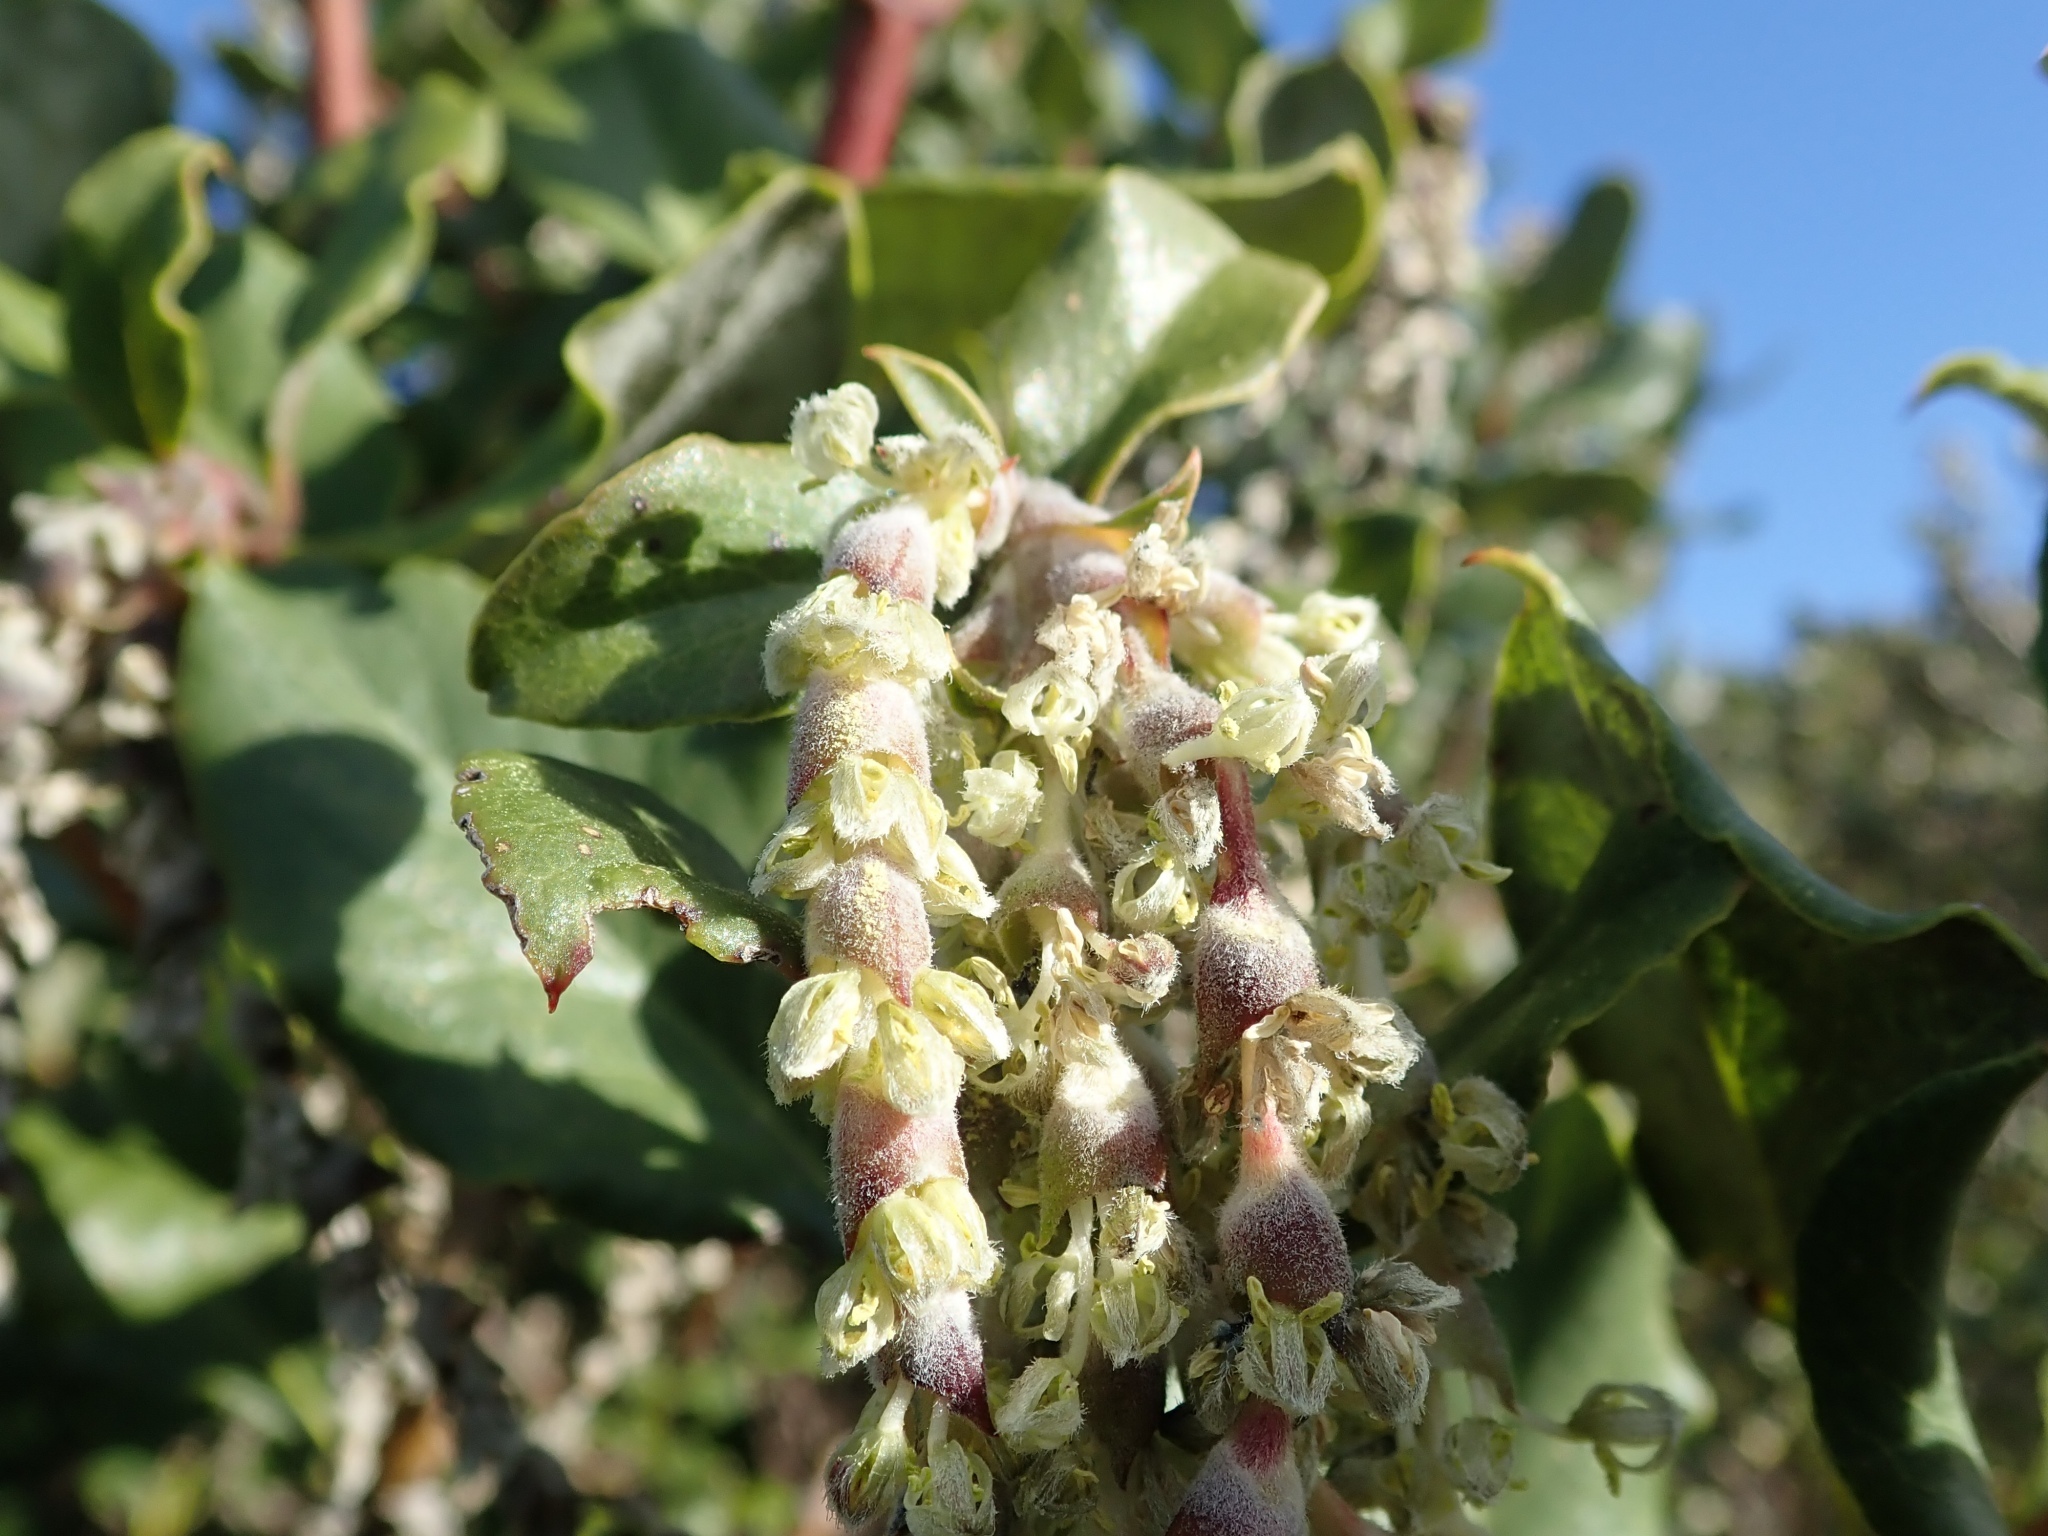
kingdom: Plantae
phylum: Tracheophyta
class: Magnoliopsida
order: Garryales
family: Garryaceae
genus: Garrya
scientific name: Garrya elliptica
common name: Silk-tassel
